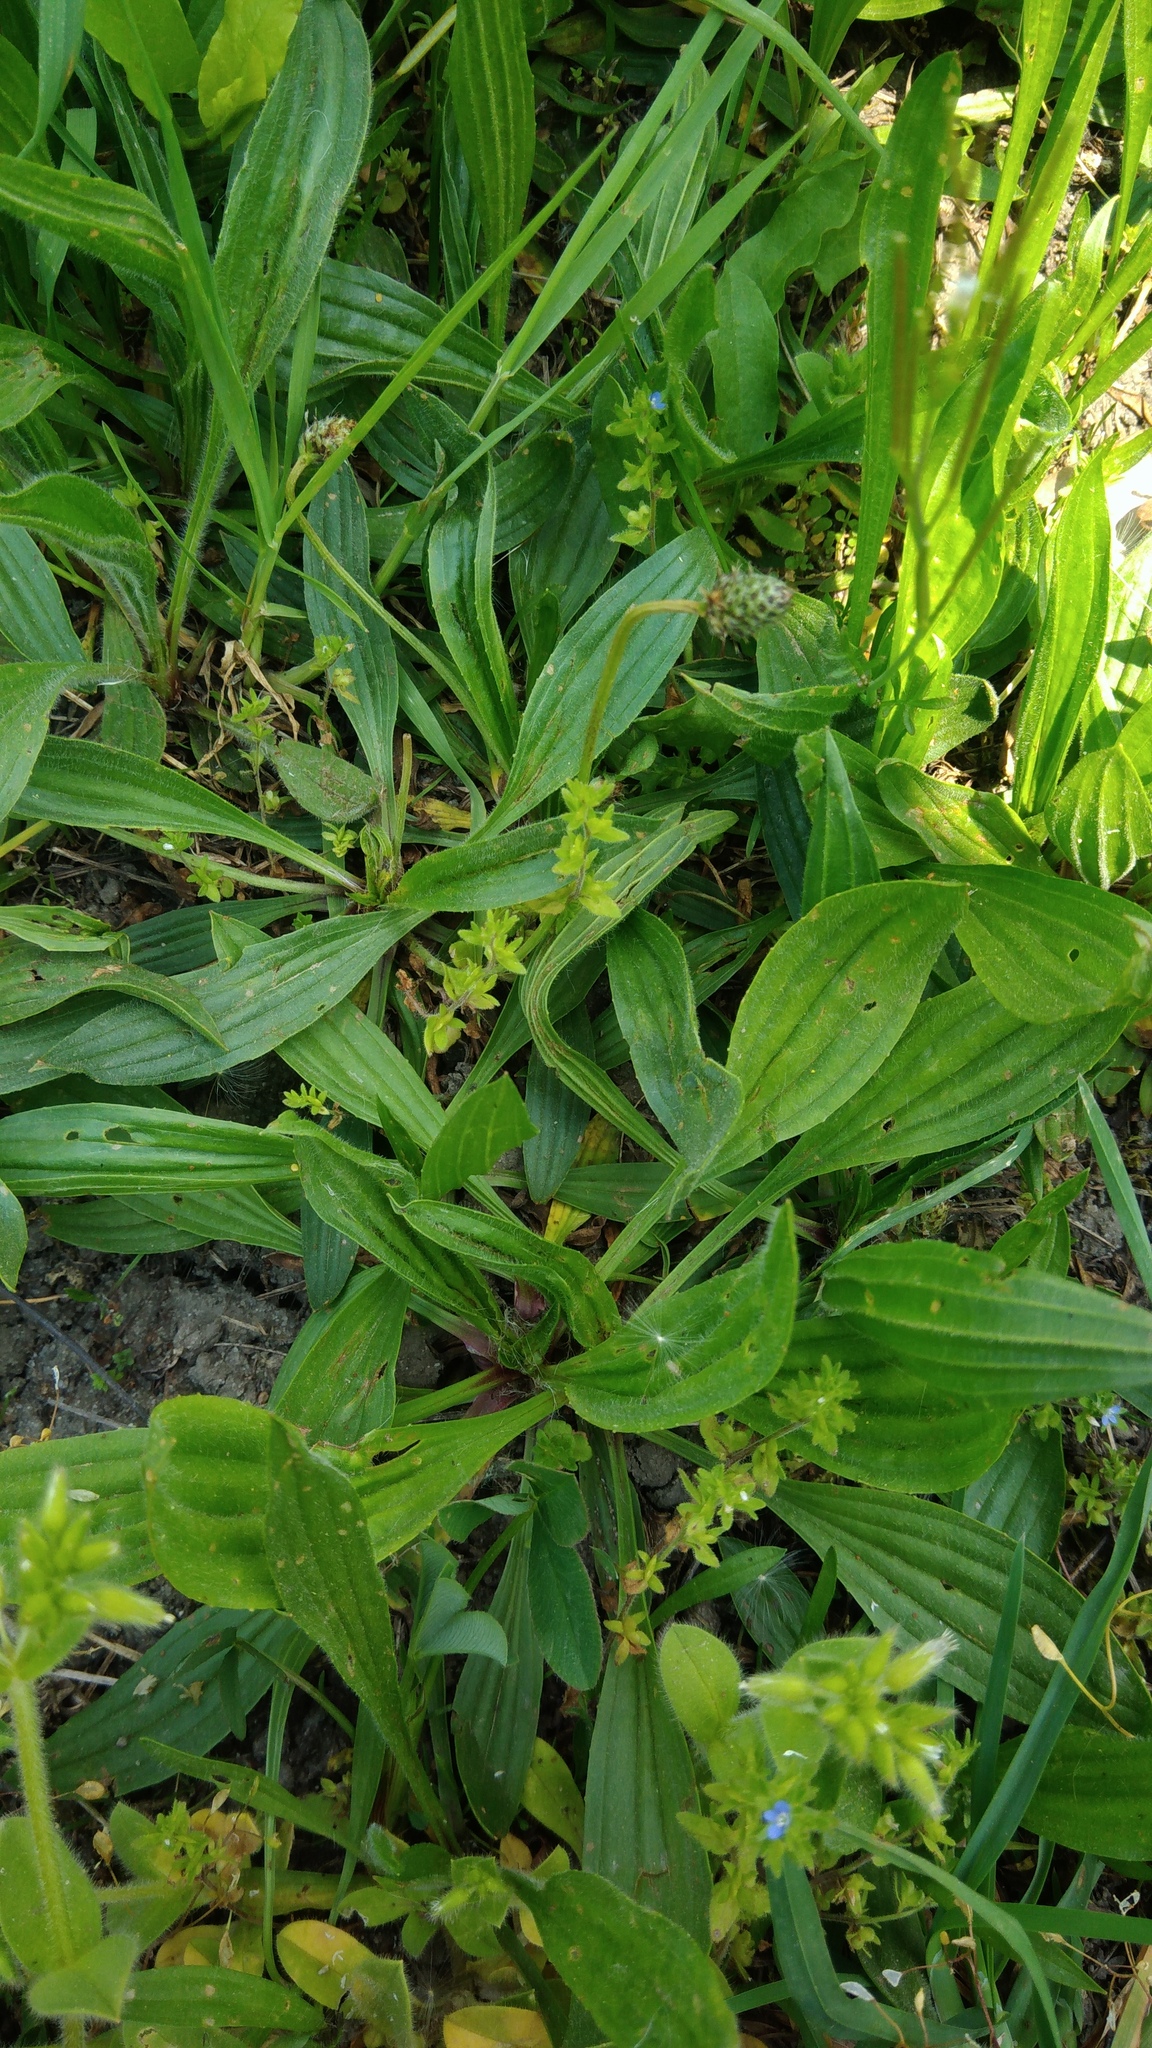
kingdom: Plantae
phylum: Tracheophyta
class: Magnoliopsida
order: Lamiales
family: Plantaginaceae
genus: Plantago
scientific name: Plantago lanceolata
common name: Ribwort plantain
